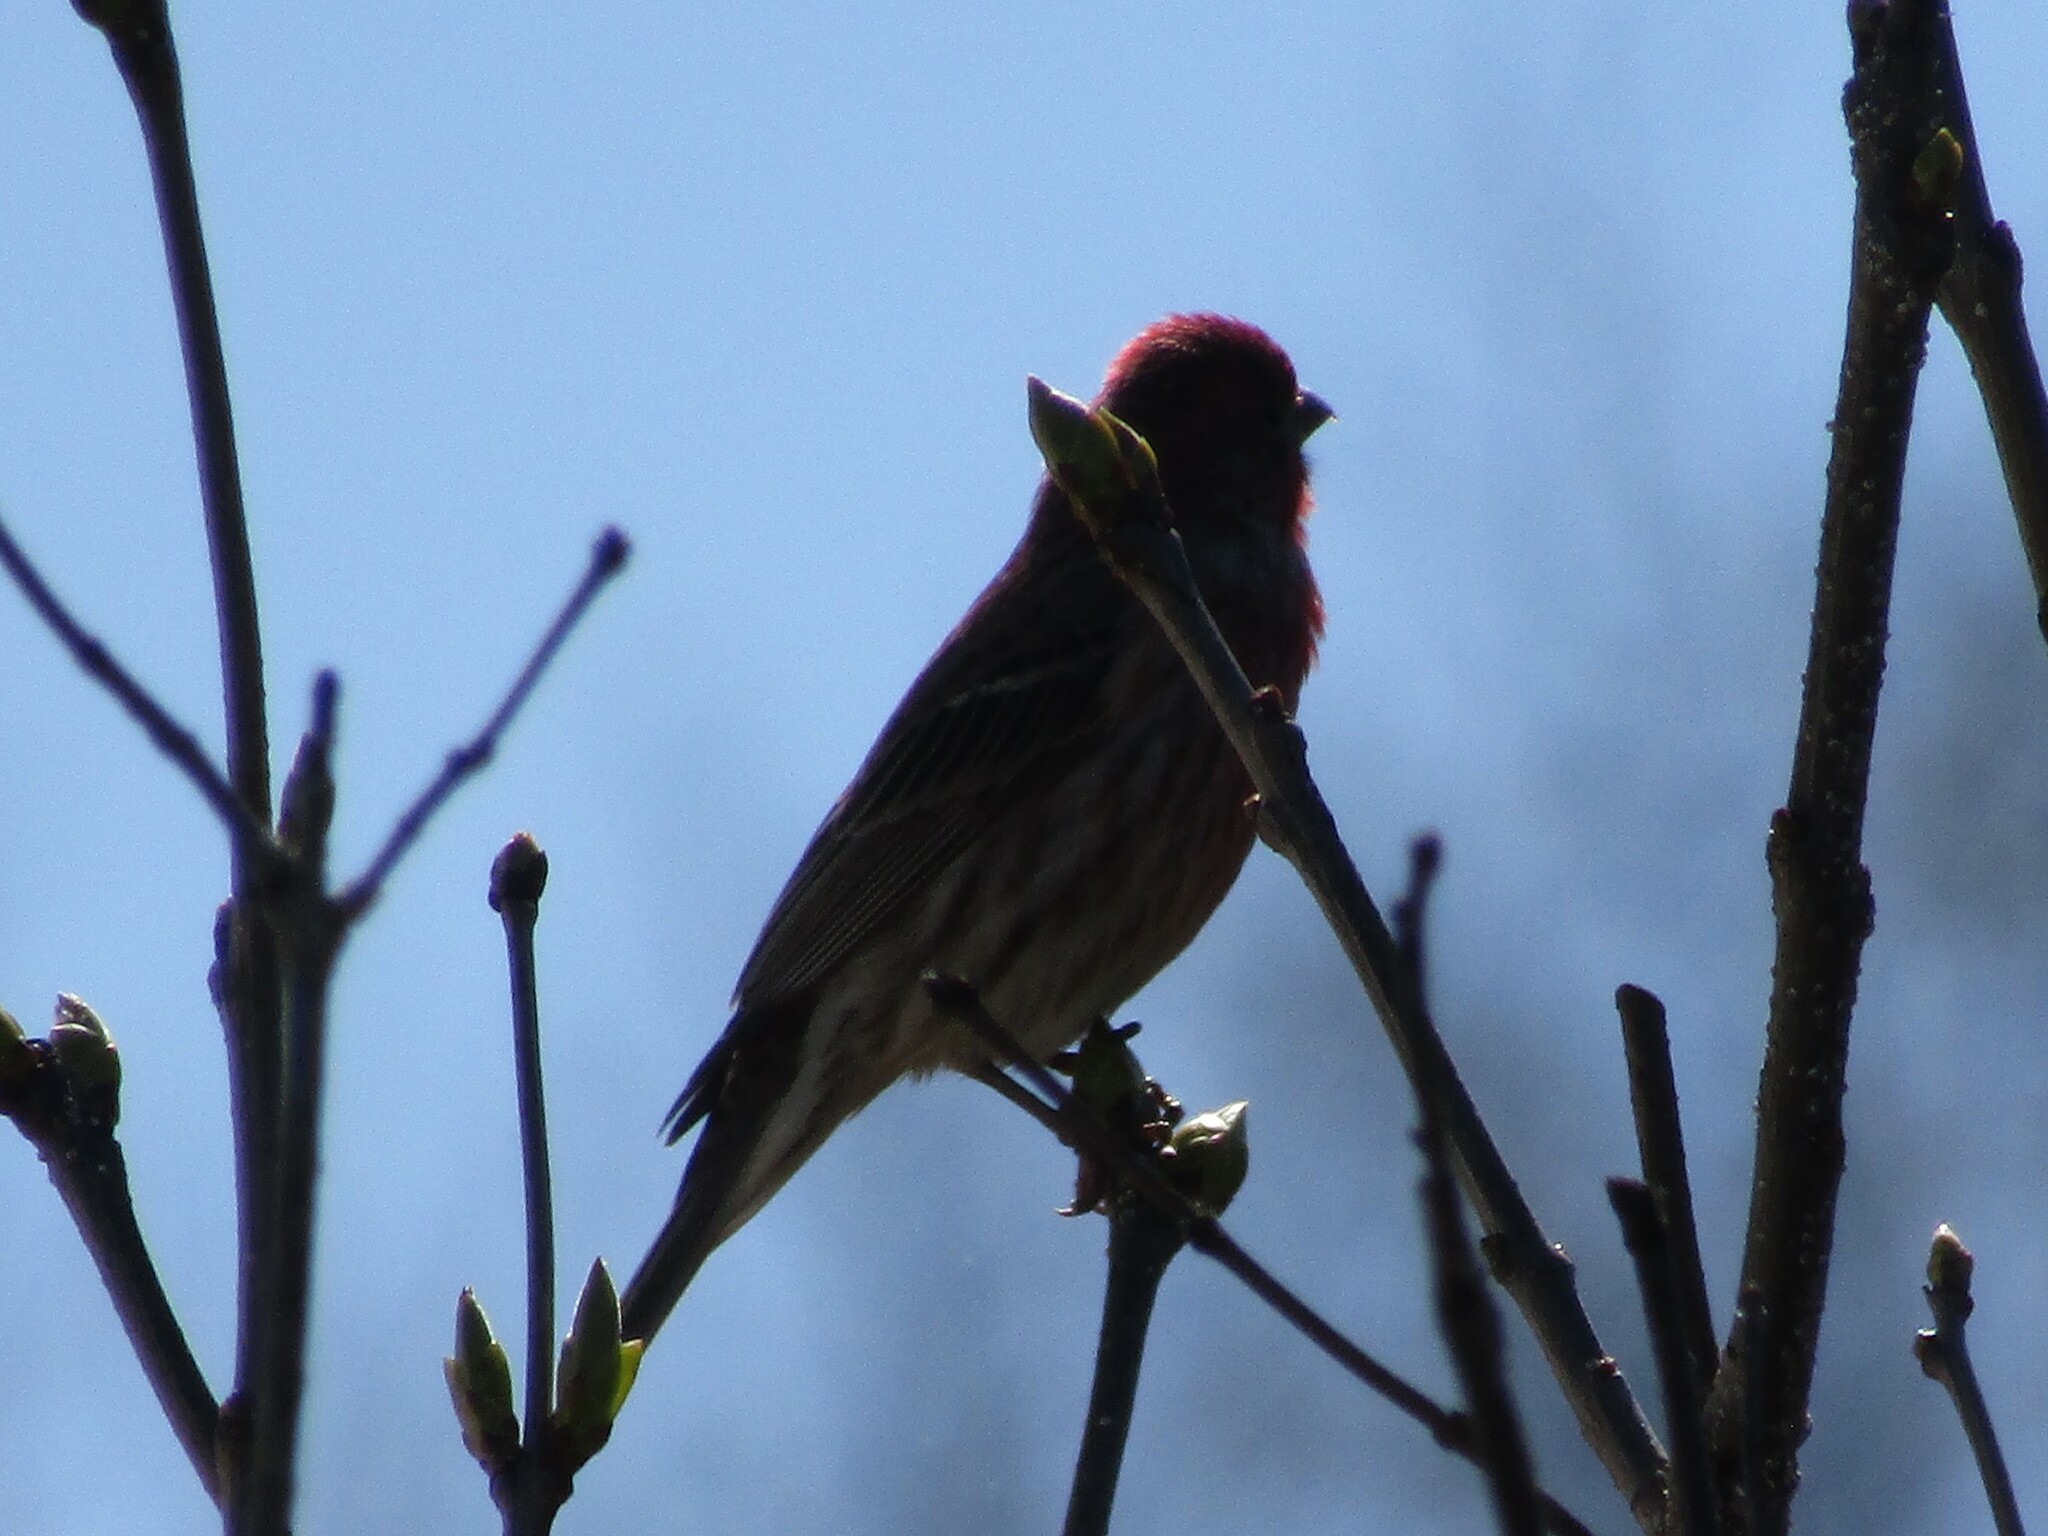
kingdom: Animalia
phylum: Chordata
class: Aves
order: Passeriformes
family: Fringillidae
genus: Haemorhous
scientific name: Haemorhous mexicanus
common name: House finch
